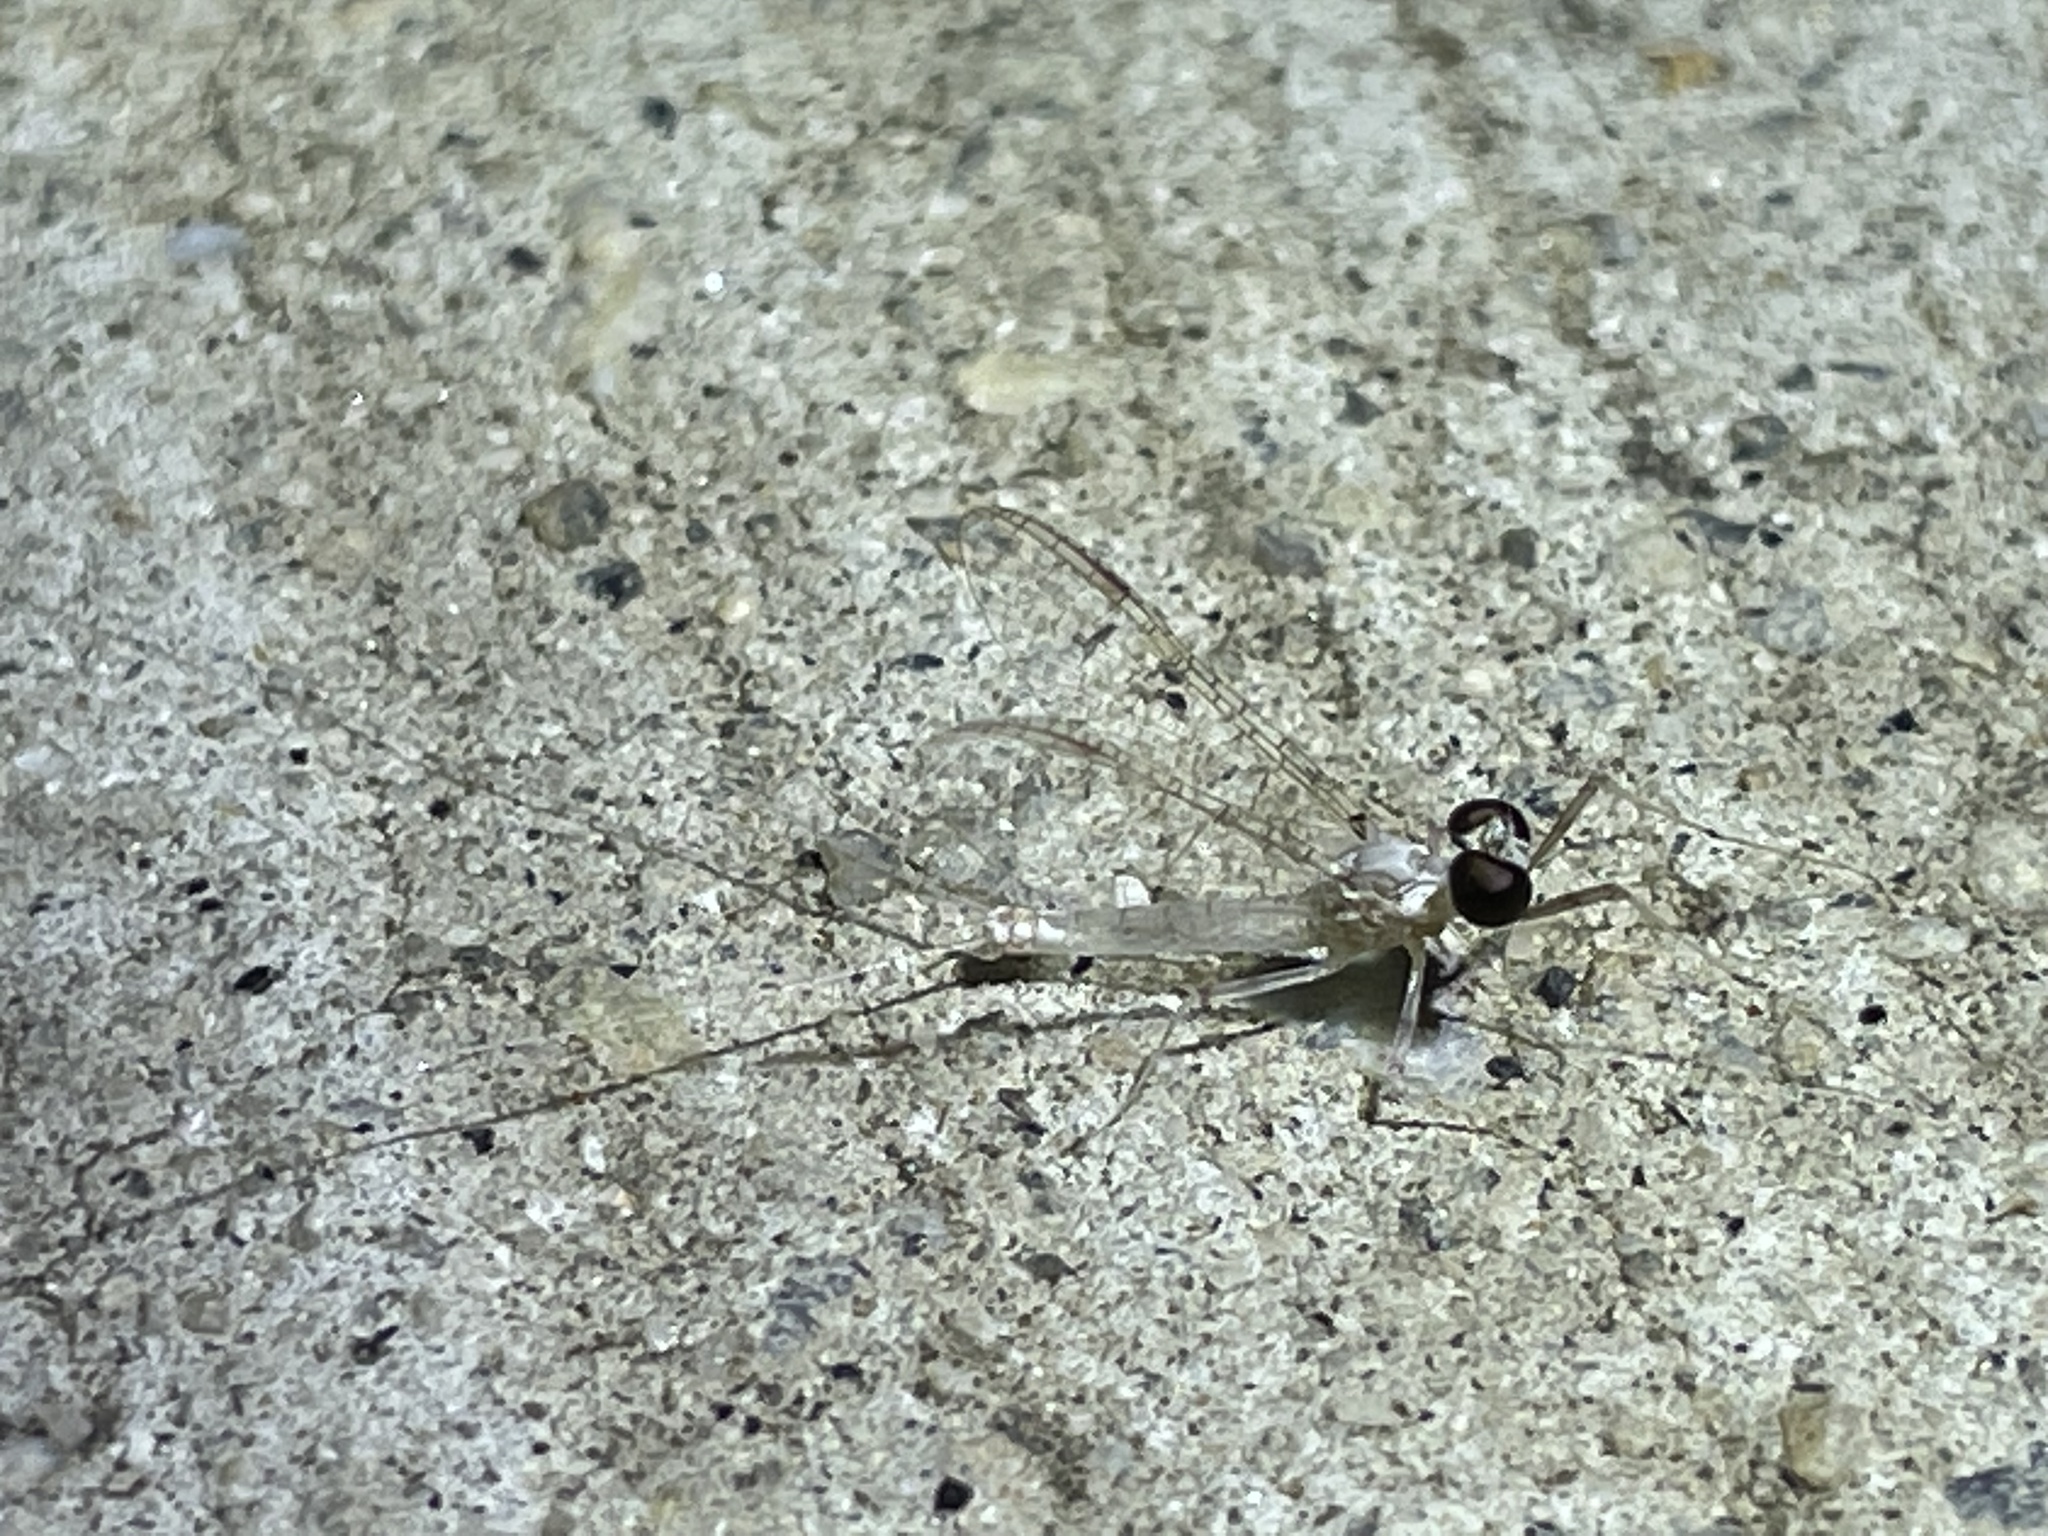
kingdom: Animalia
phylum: Arthropoda
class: Insecta
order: Ephemeroptera
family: Heptageniidae
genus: Maccaffertium
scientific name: Maccaffertium terminatum
